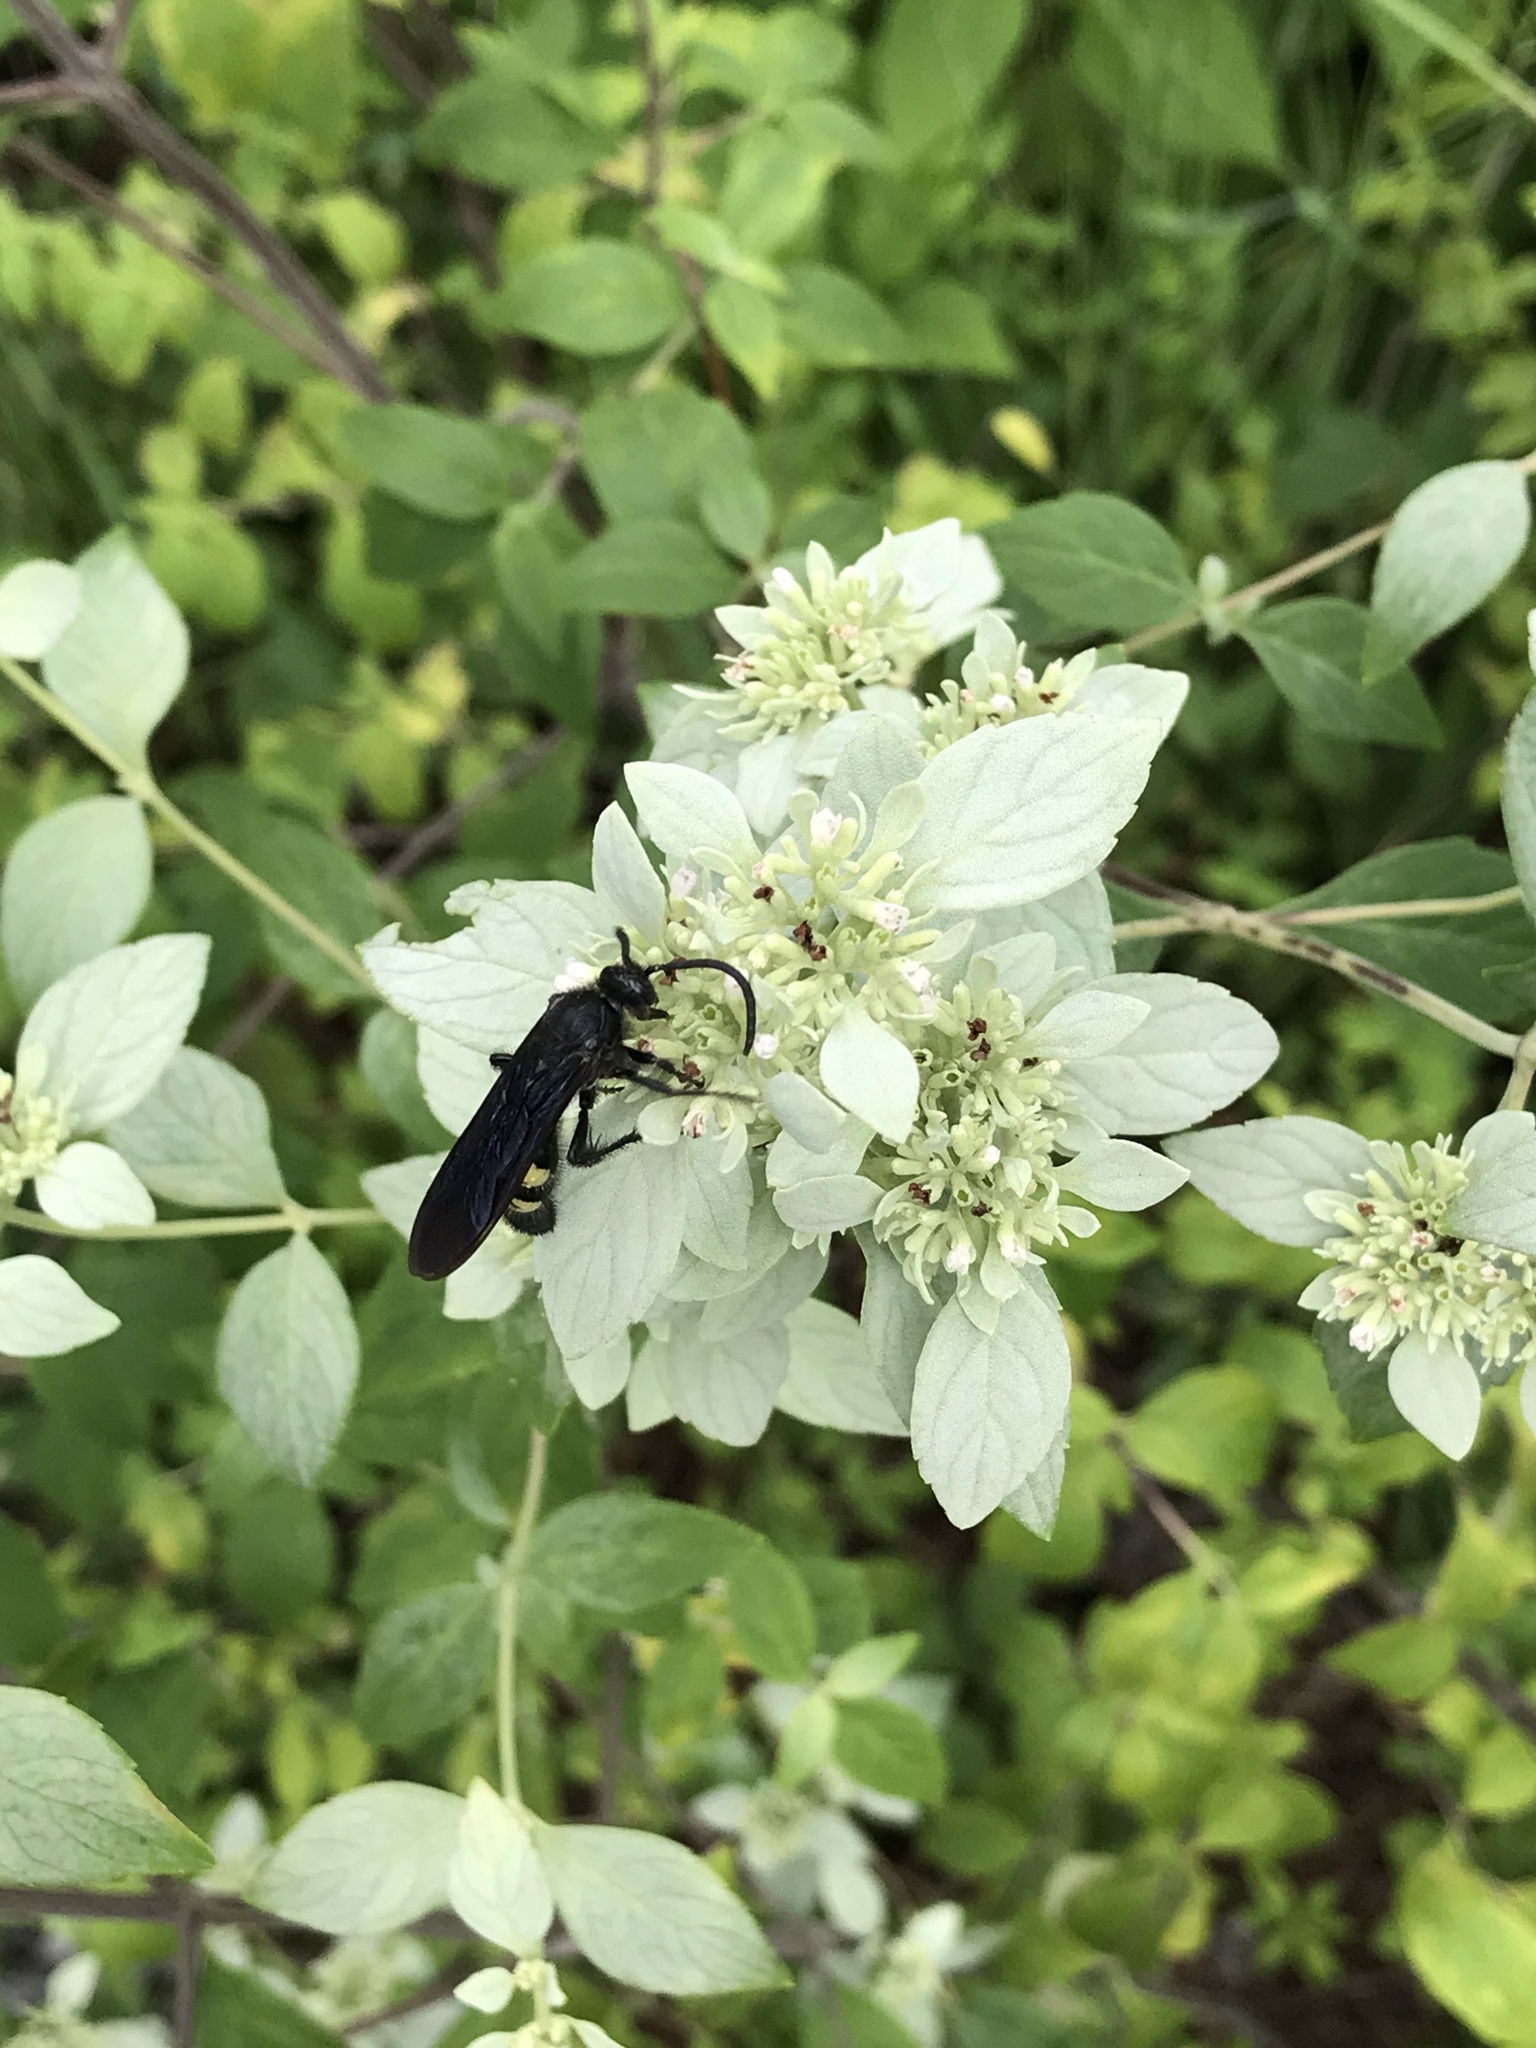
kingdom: Animalia
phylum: Arthropoda
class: Insecta
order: Hymenoptera
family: Scoliidae
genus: Pygodasis
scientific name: Pygodasis
